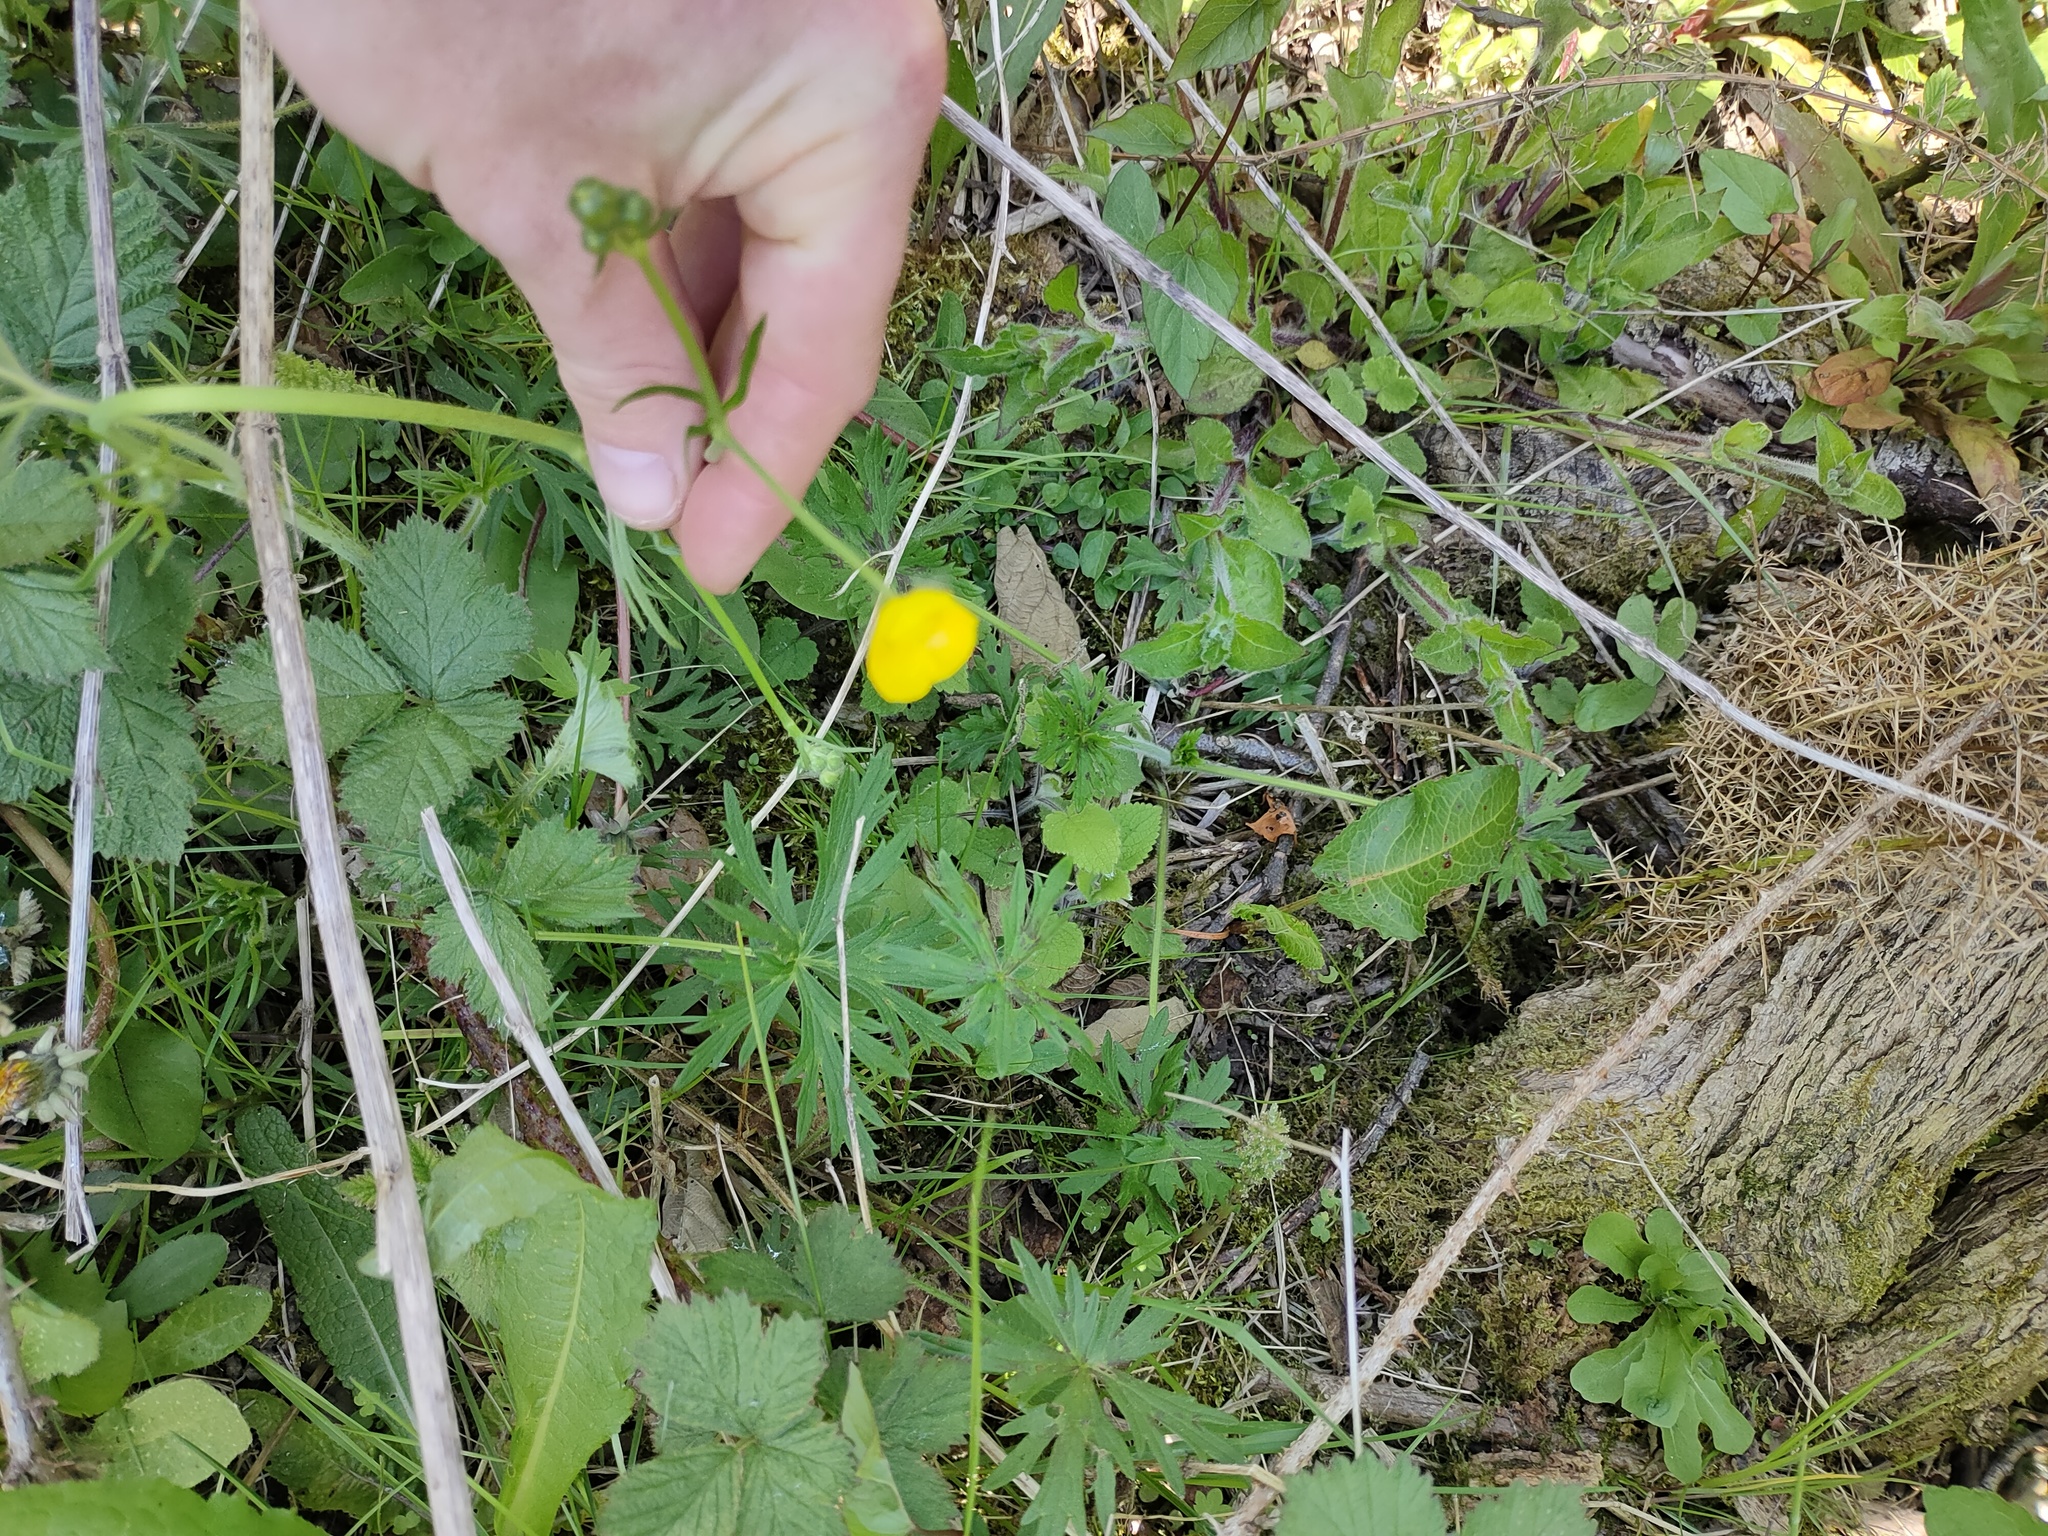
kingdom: Plantae
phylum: Tracheophyta
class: Magnoliopsida
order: Ranunculales
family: Ranunculaceae
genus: Ranunculus
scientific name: Ranunculus acris
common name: Meadow buttercup
